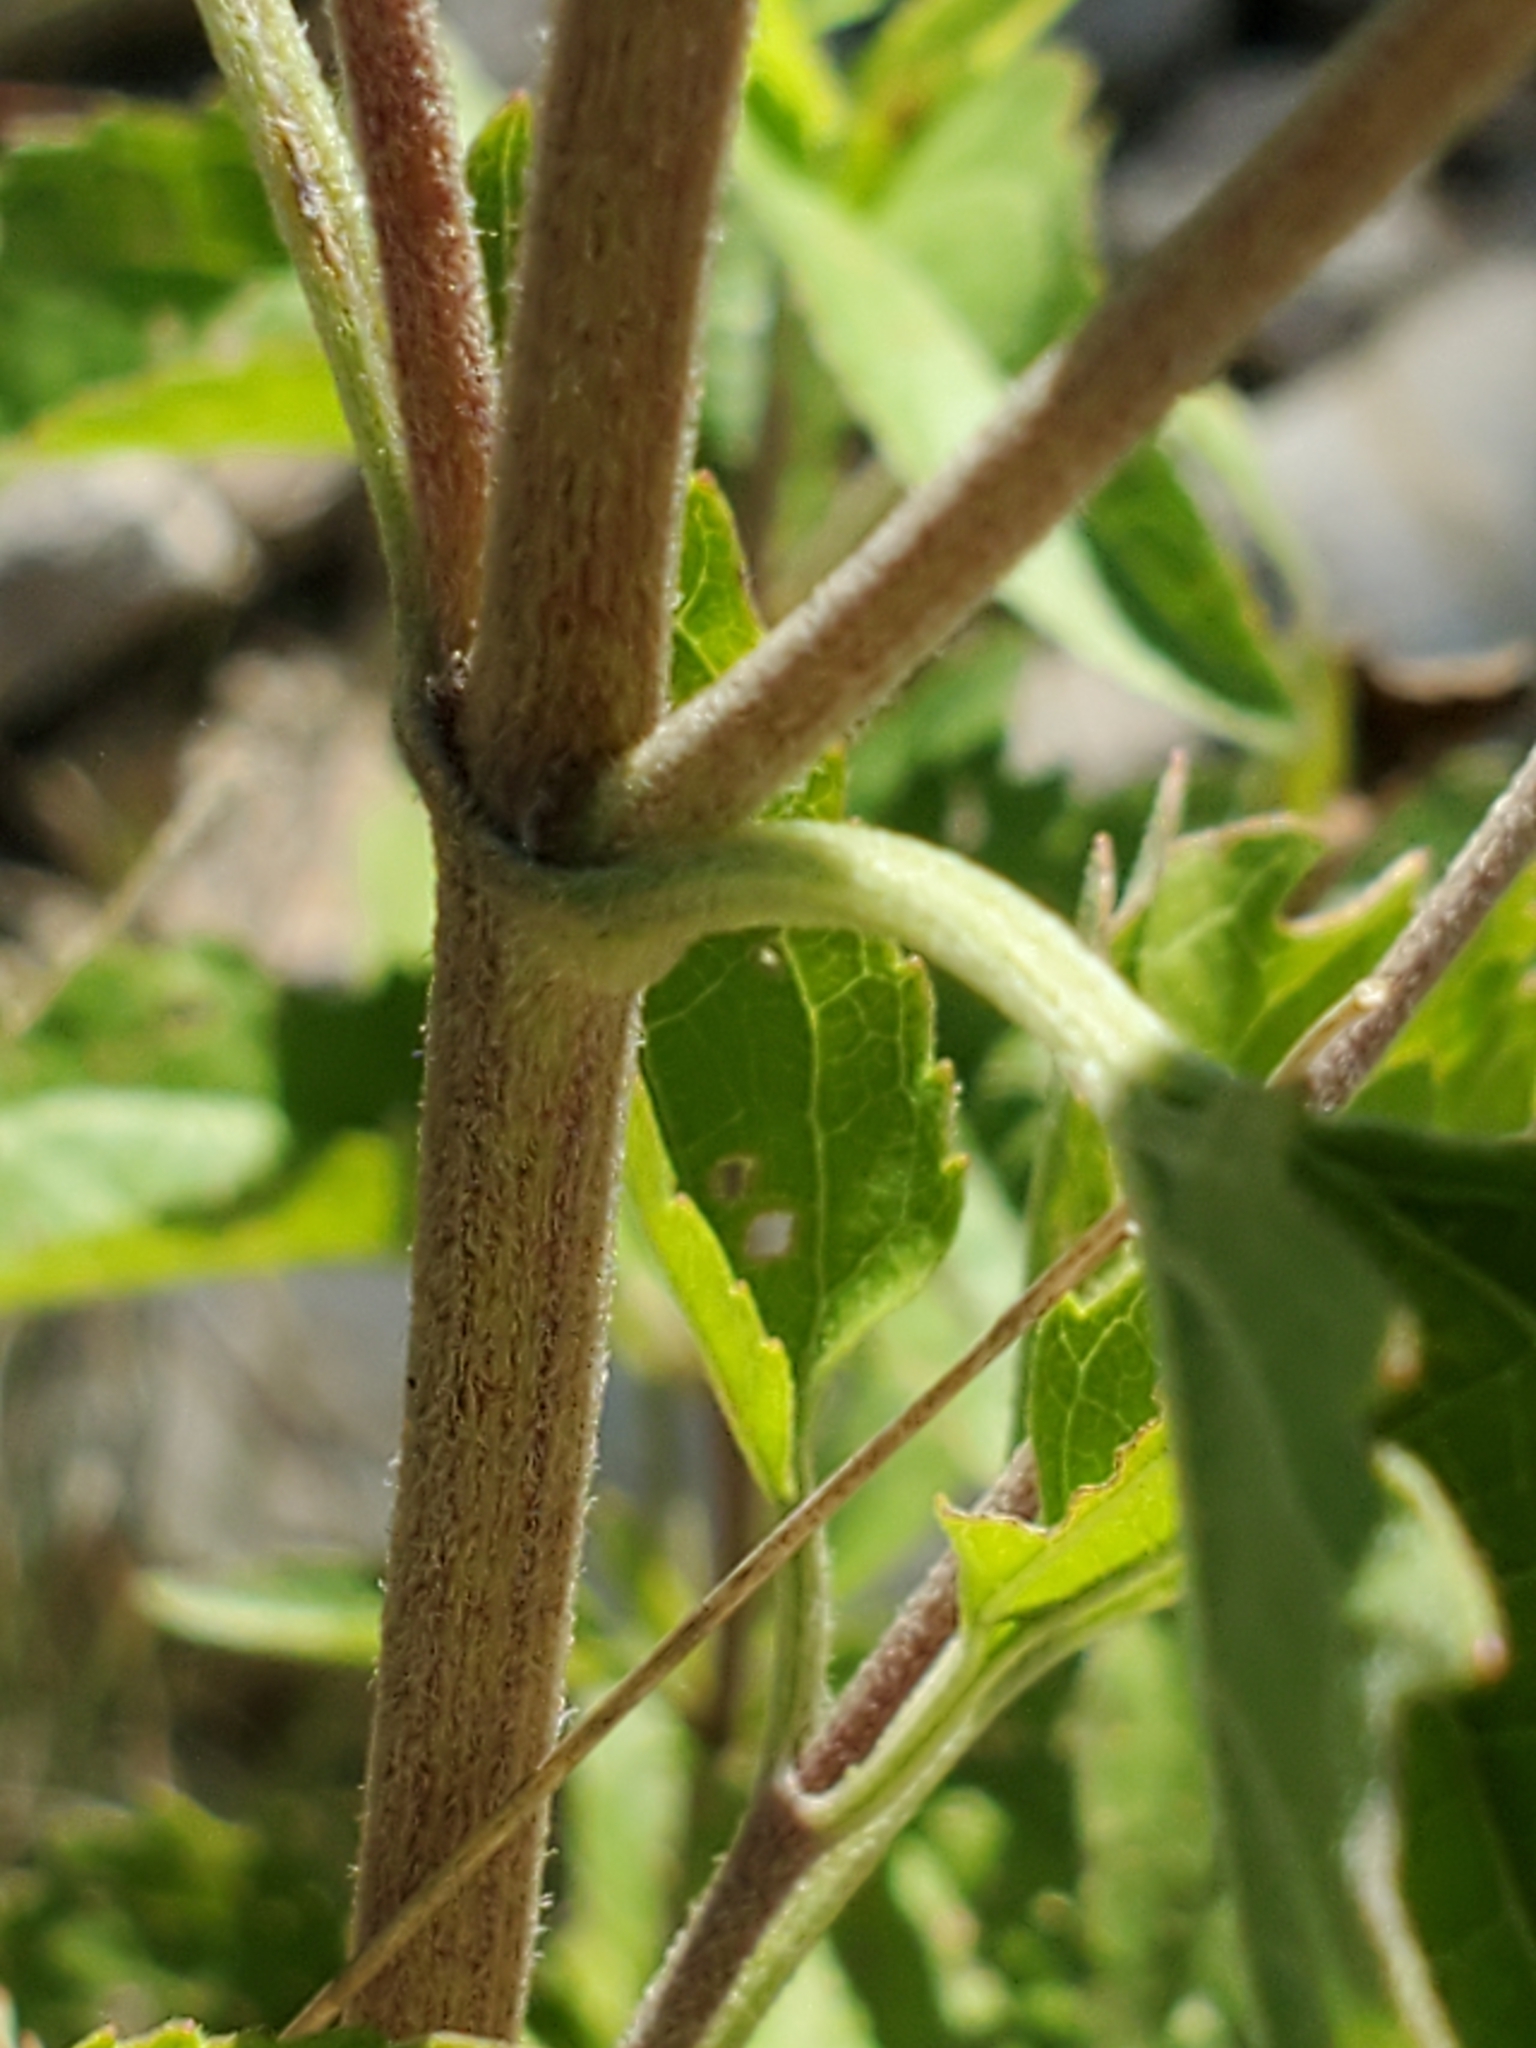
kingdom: Plantae
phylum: Tracheophyta
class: Magnoliopsida
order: Asterales
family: Asteraceae
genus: Eupatorium
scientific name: Eupatorium serotinum
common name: Late boneset
